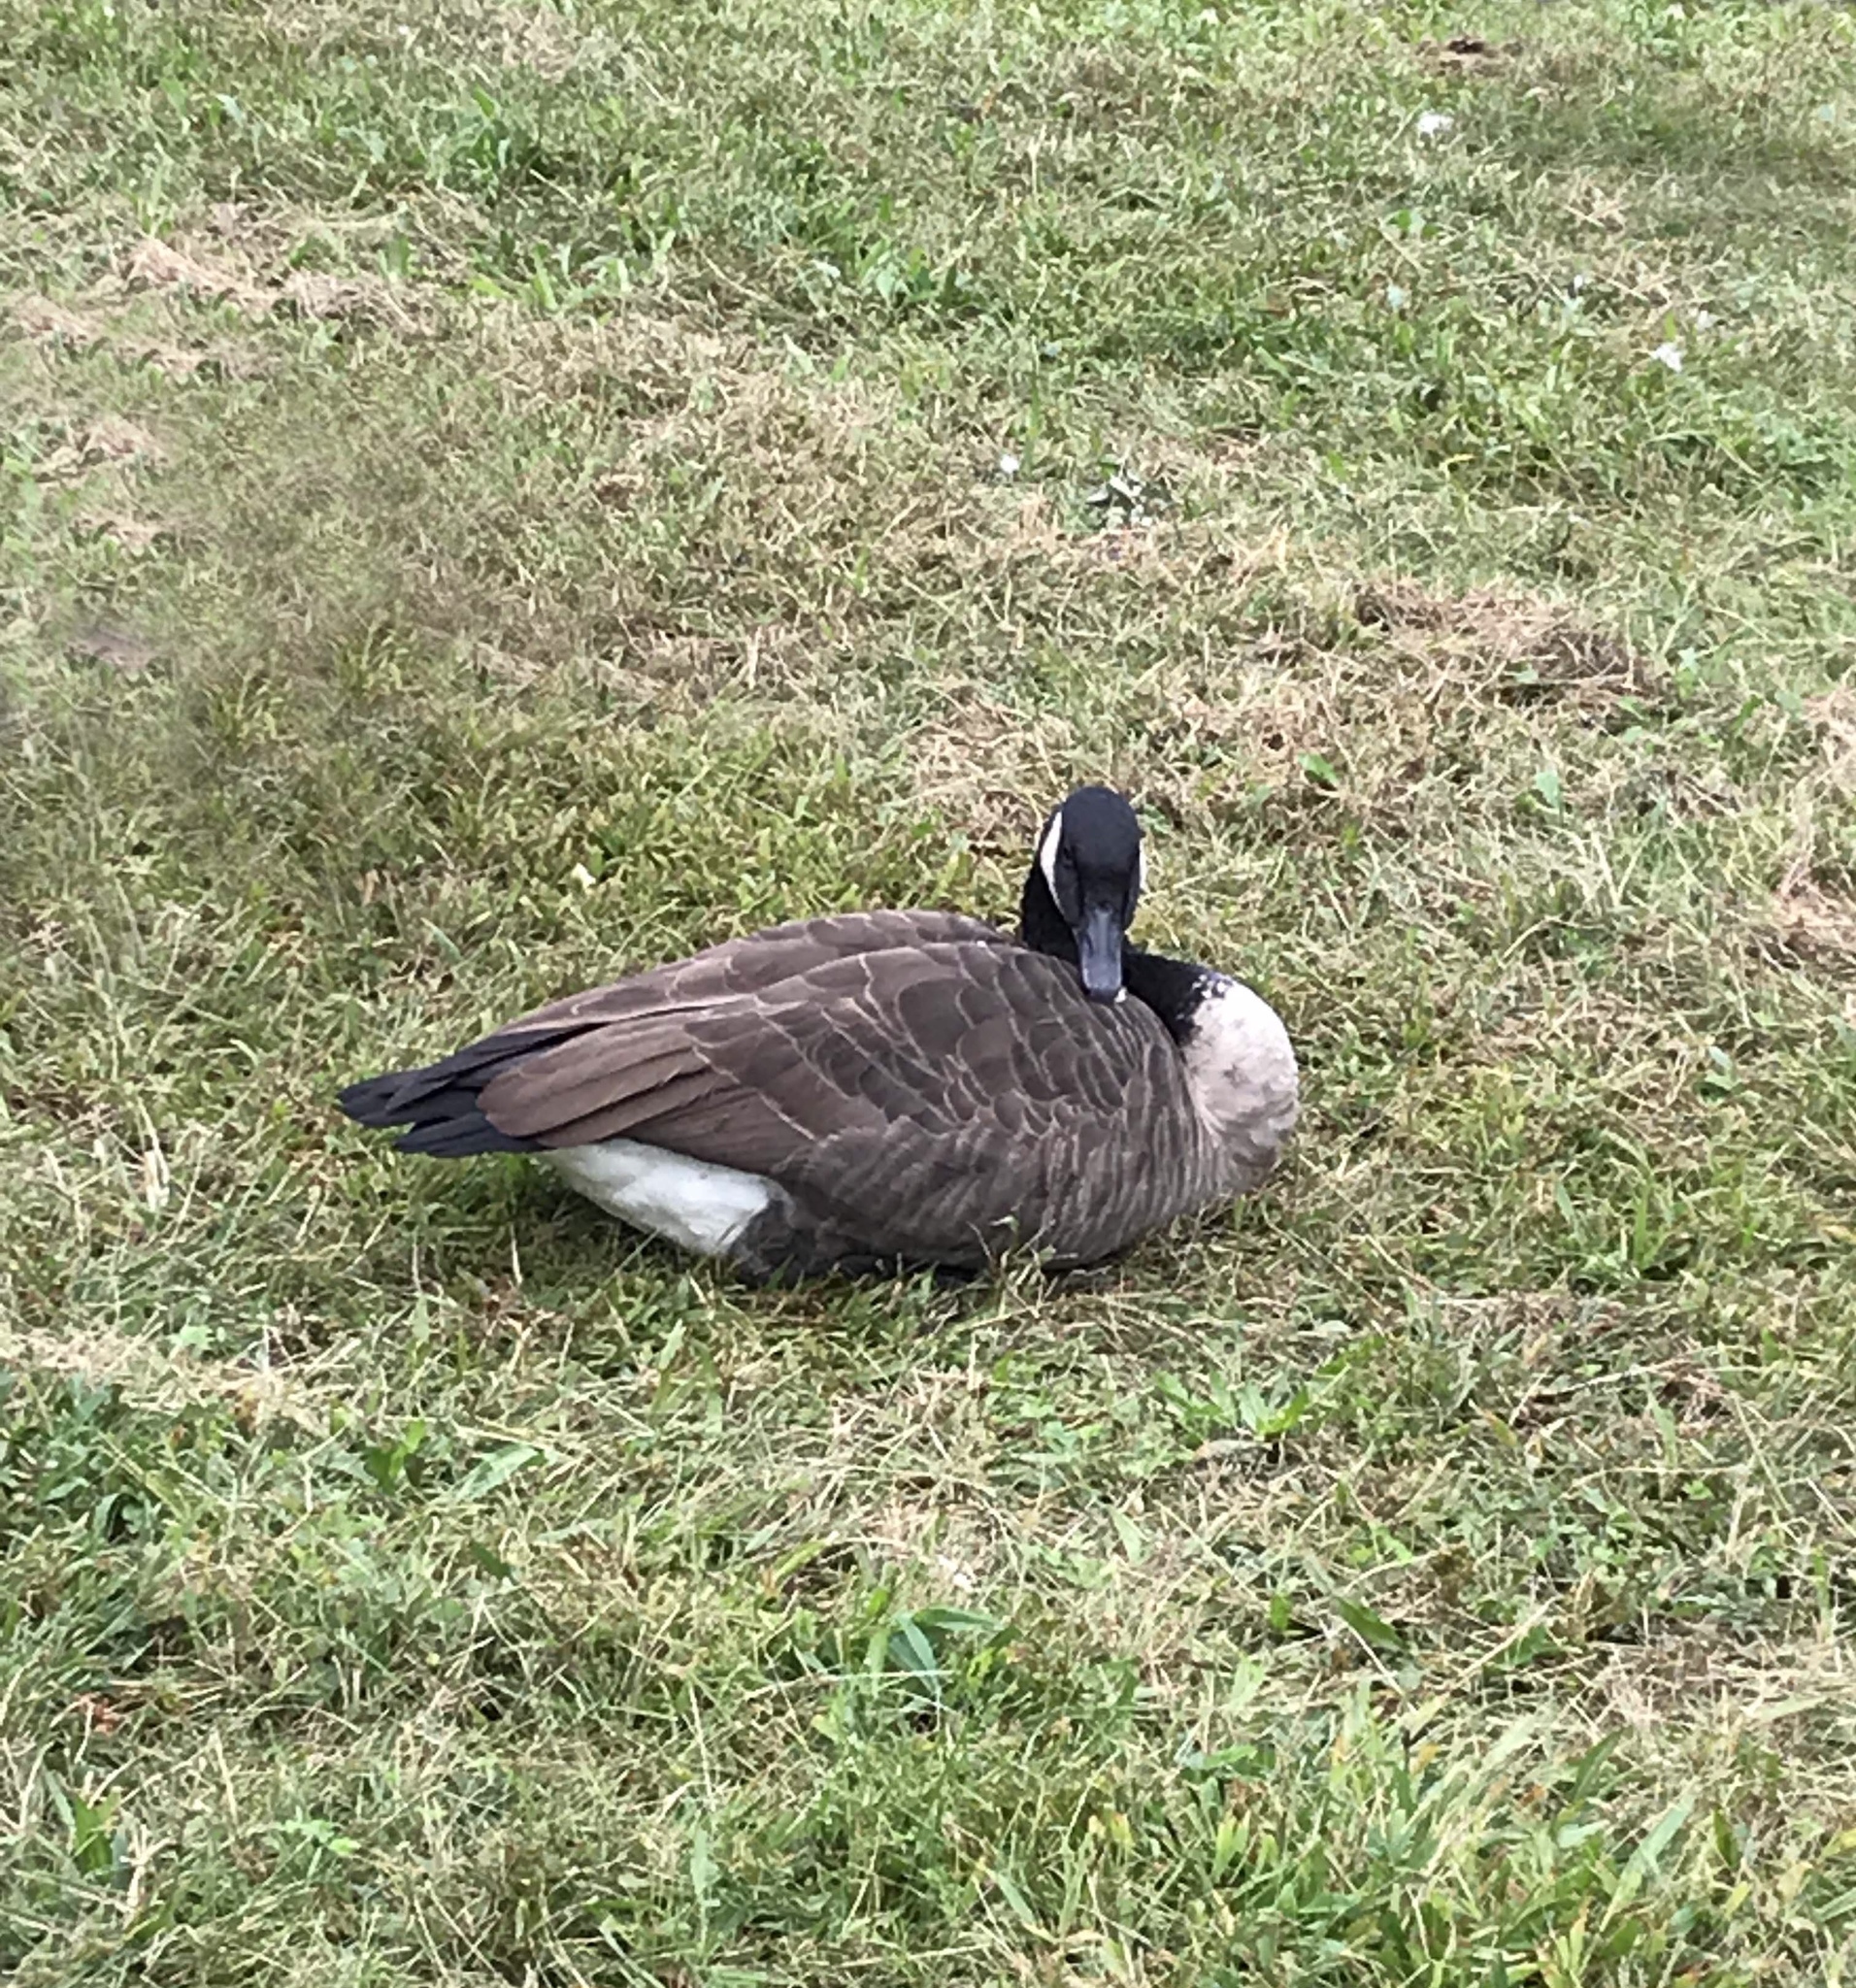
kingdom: Animalia
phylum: Chordata
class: Aves
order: Anseriformes
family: Anatidae
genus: Branta
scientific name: Branta canadensis
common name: Canada goose
